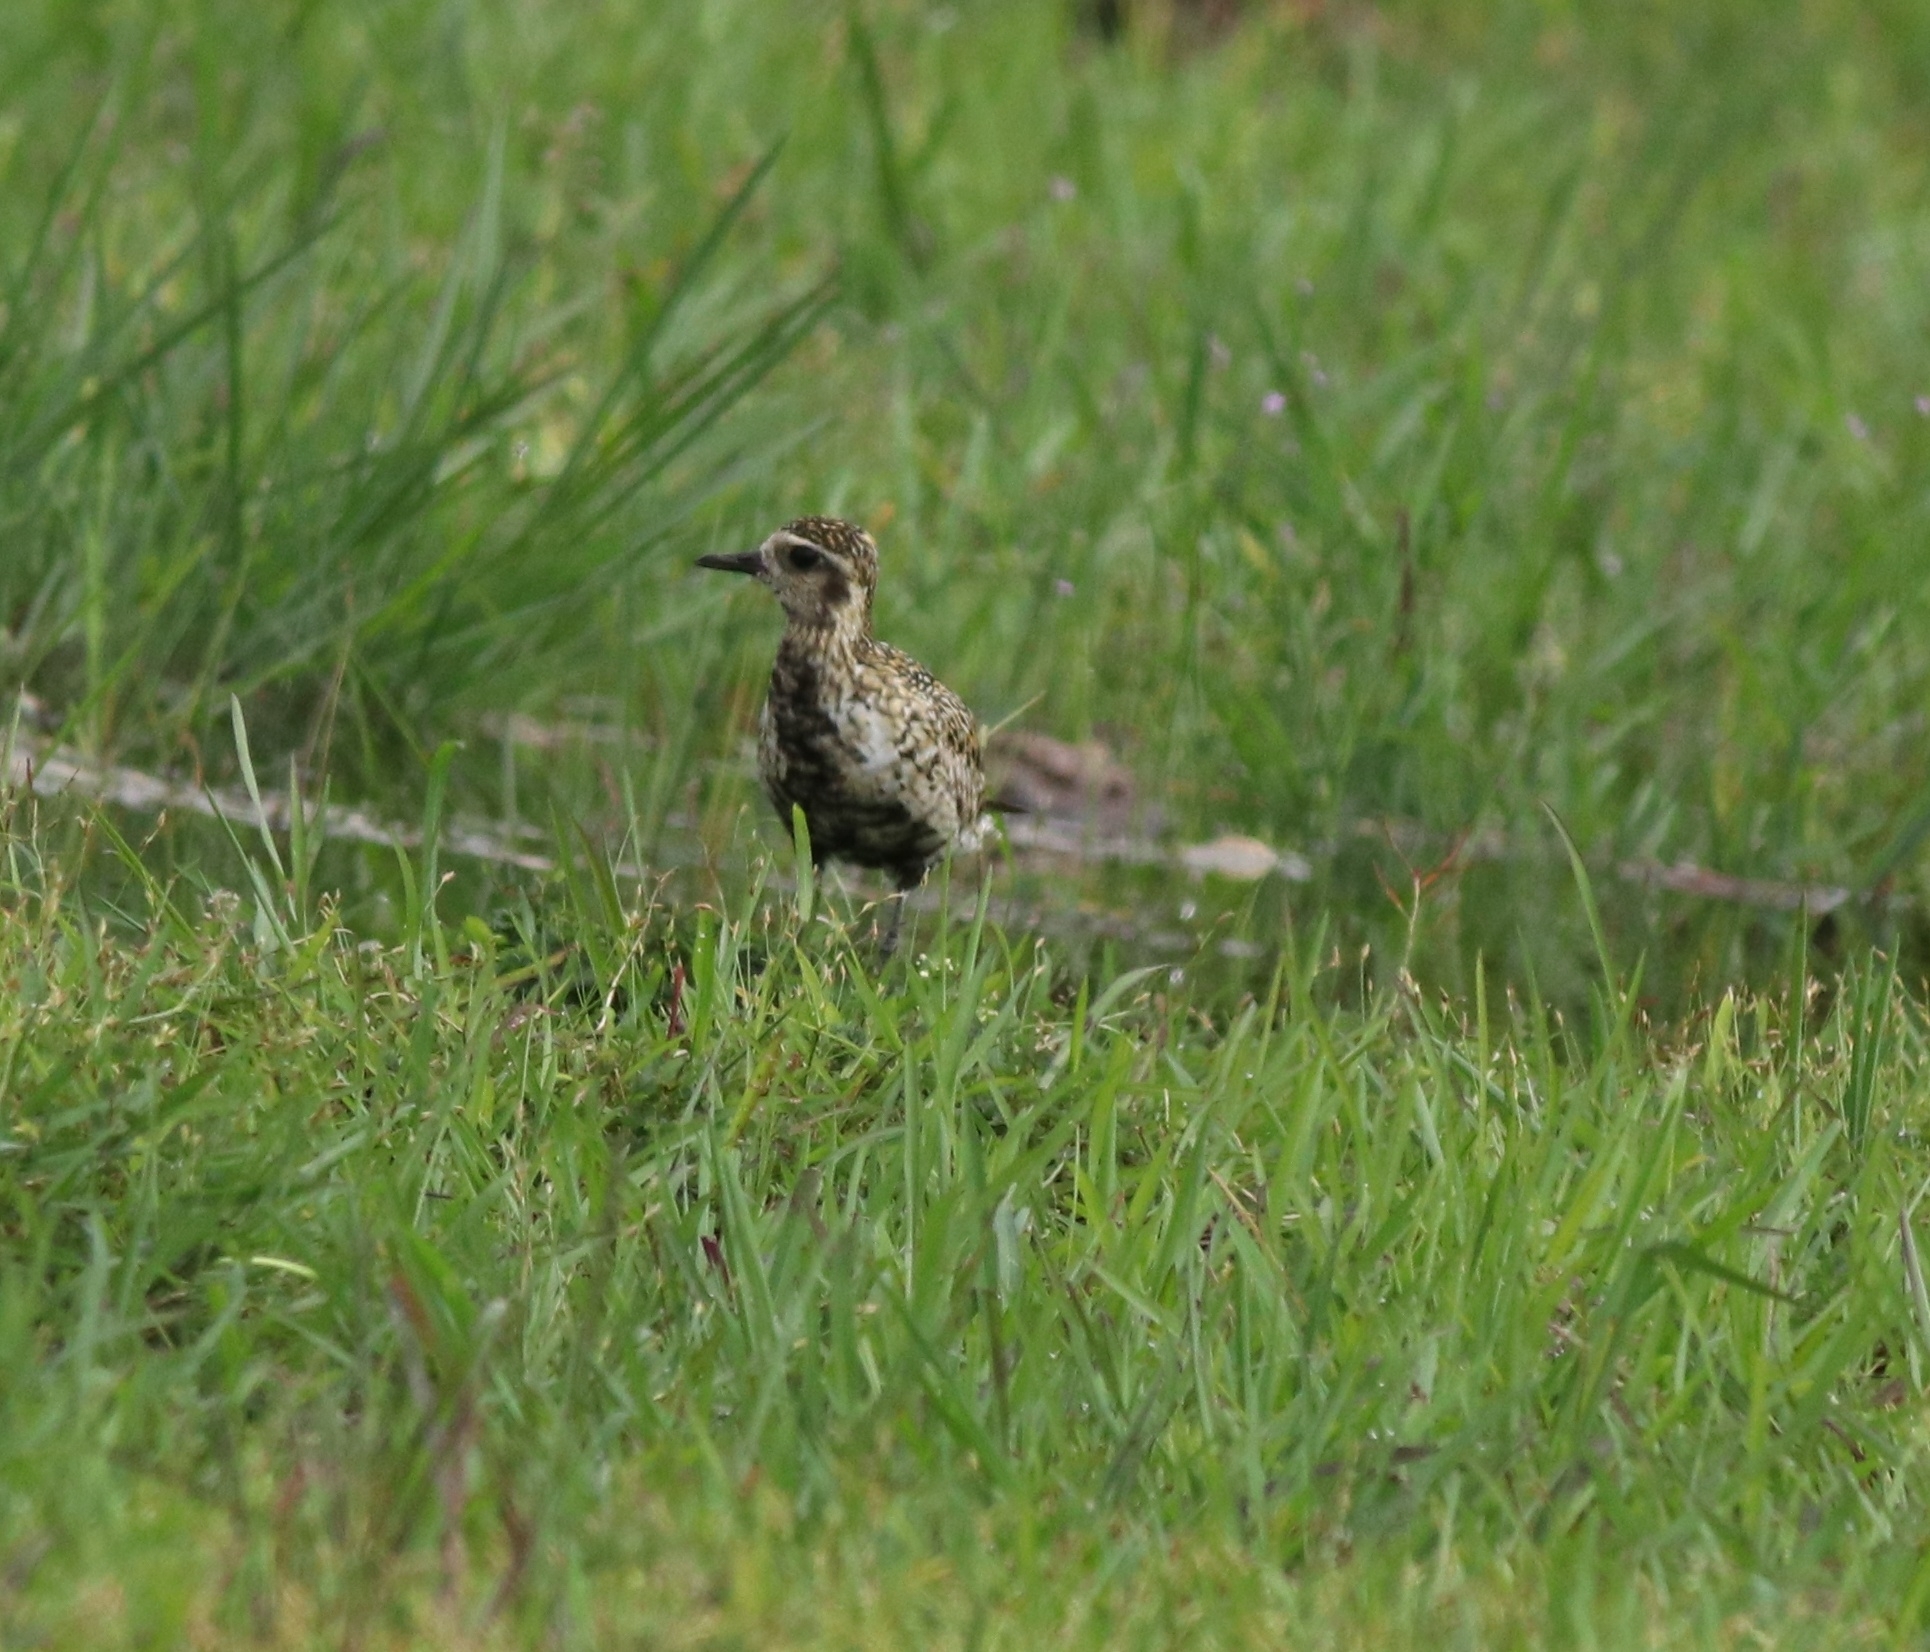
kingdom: Animalia
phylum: Chordata
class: Aves
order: Charadriiformes
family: Charadriidae
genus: Pluvialis
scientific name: Pluvialis fulva
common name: Pacific golden plover
